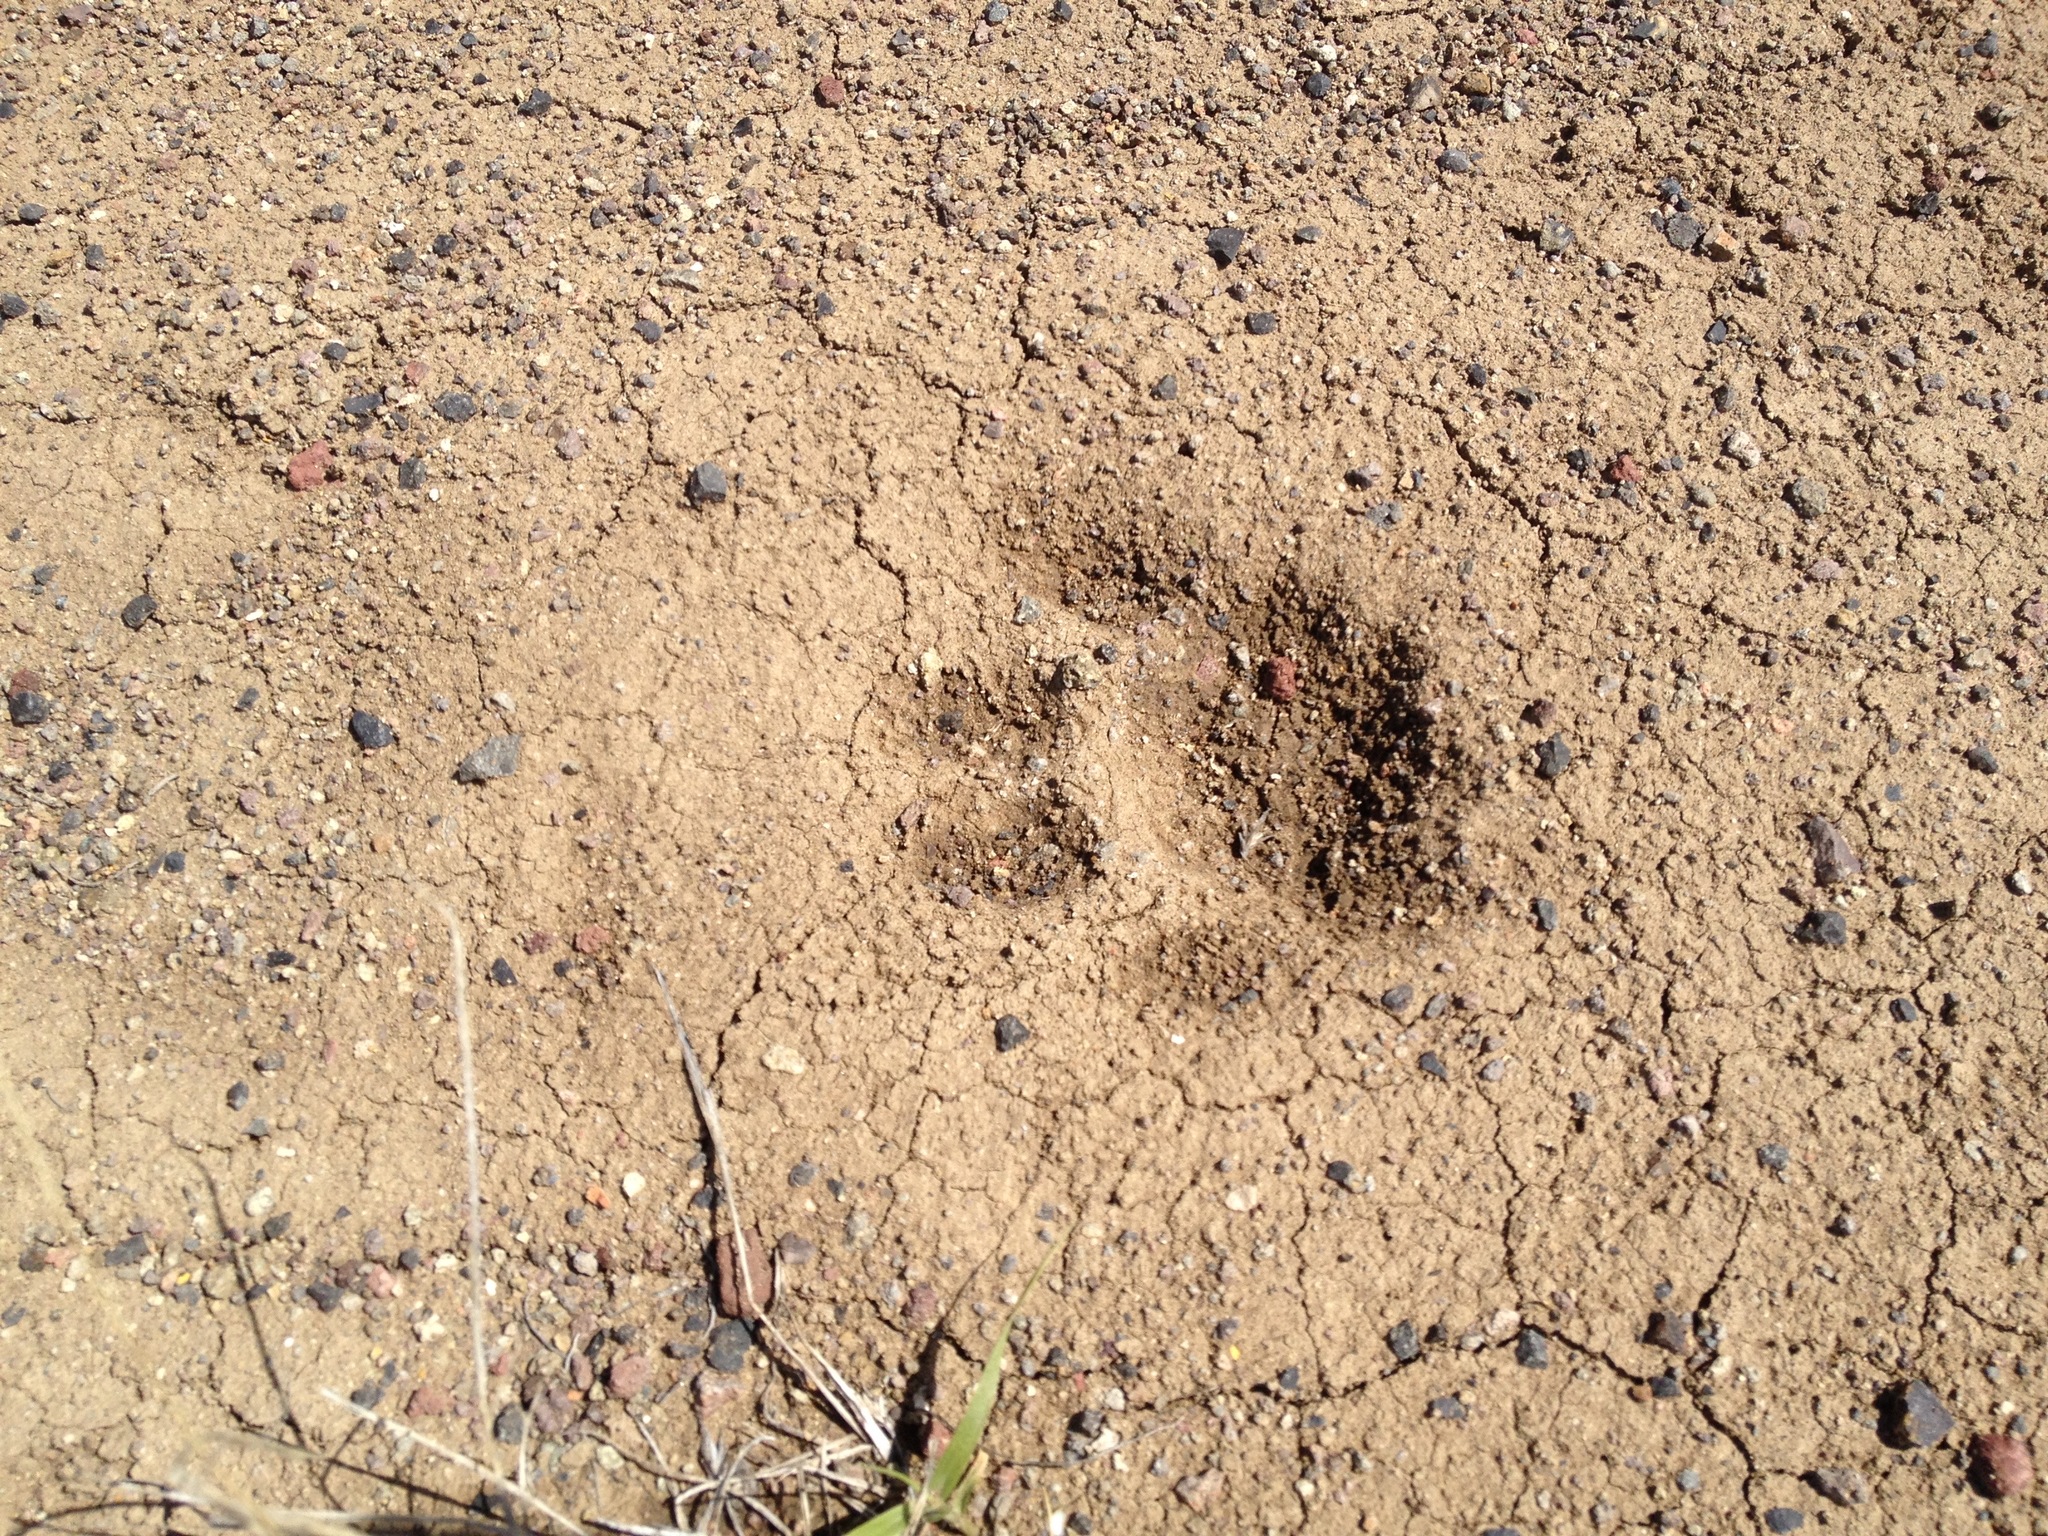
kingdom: Animalia
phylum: Chordata
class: Mammalia
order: Carnivora
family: Felidae
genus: Puma
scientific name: Puma concolor
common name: Puma
